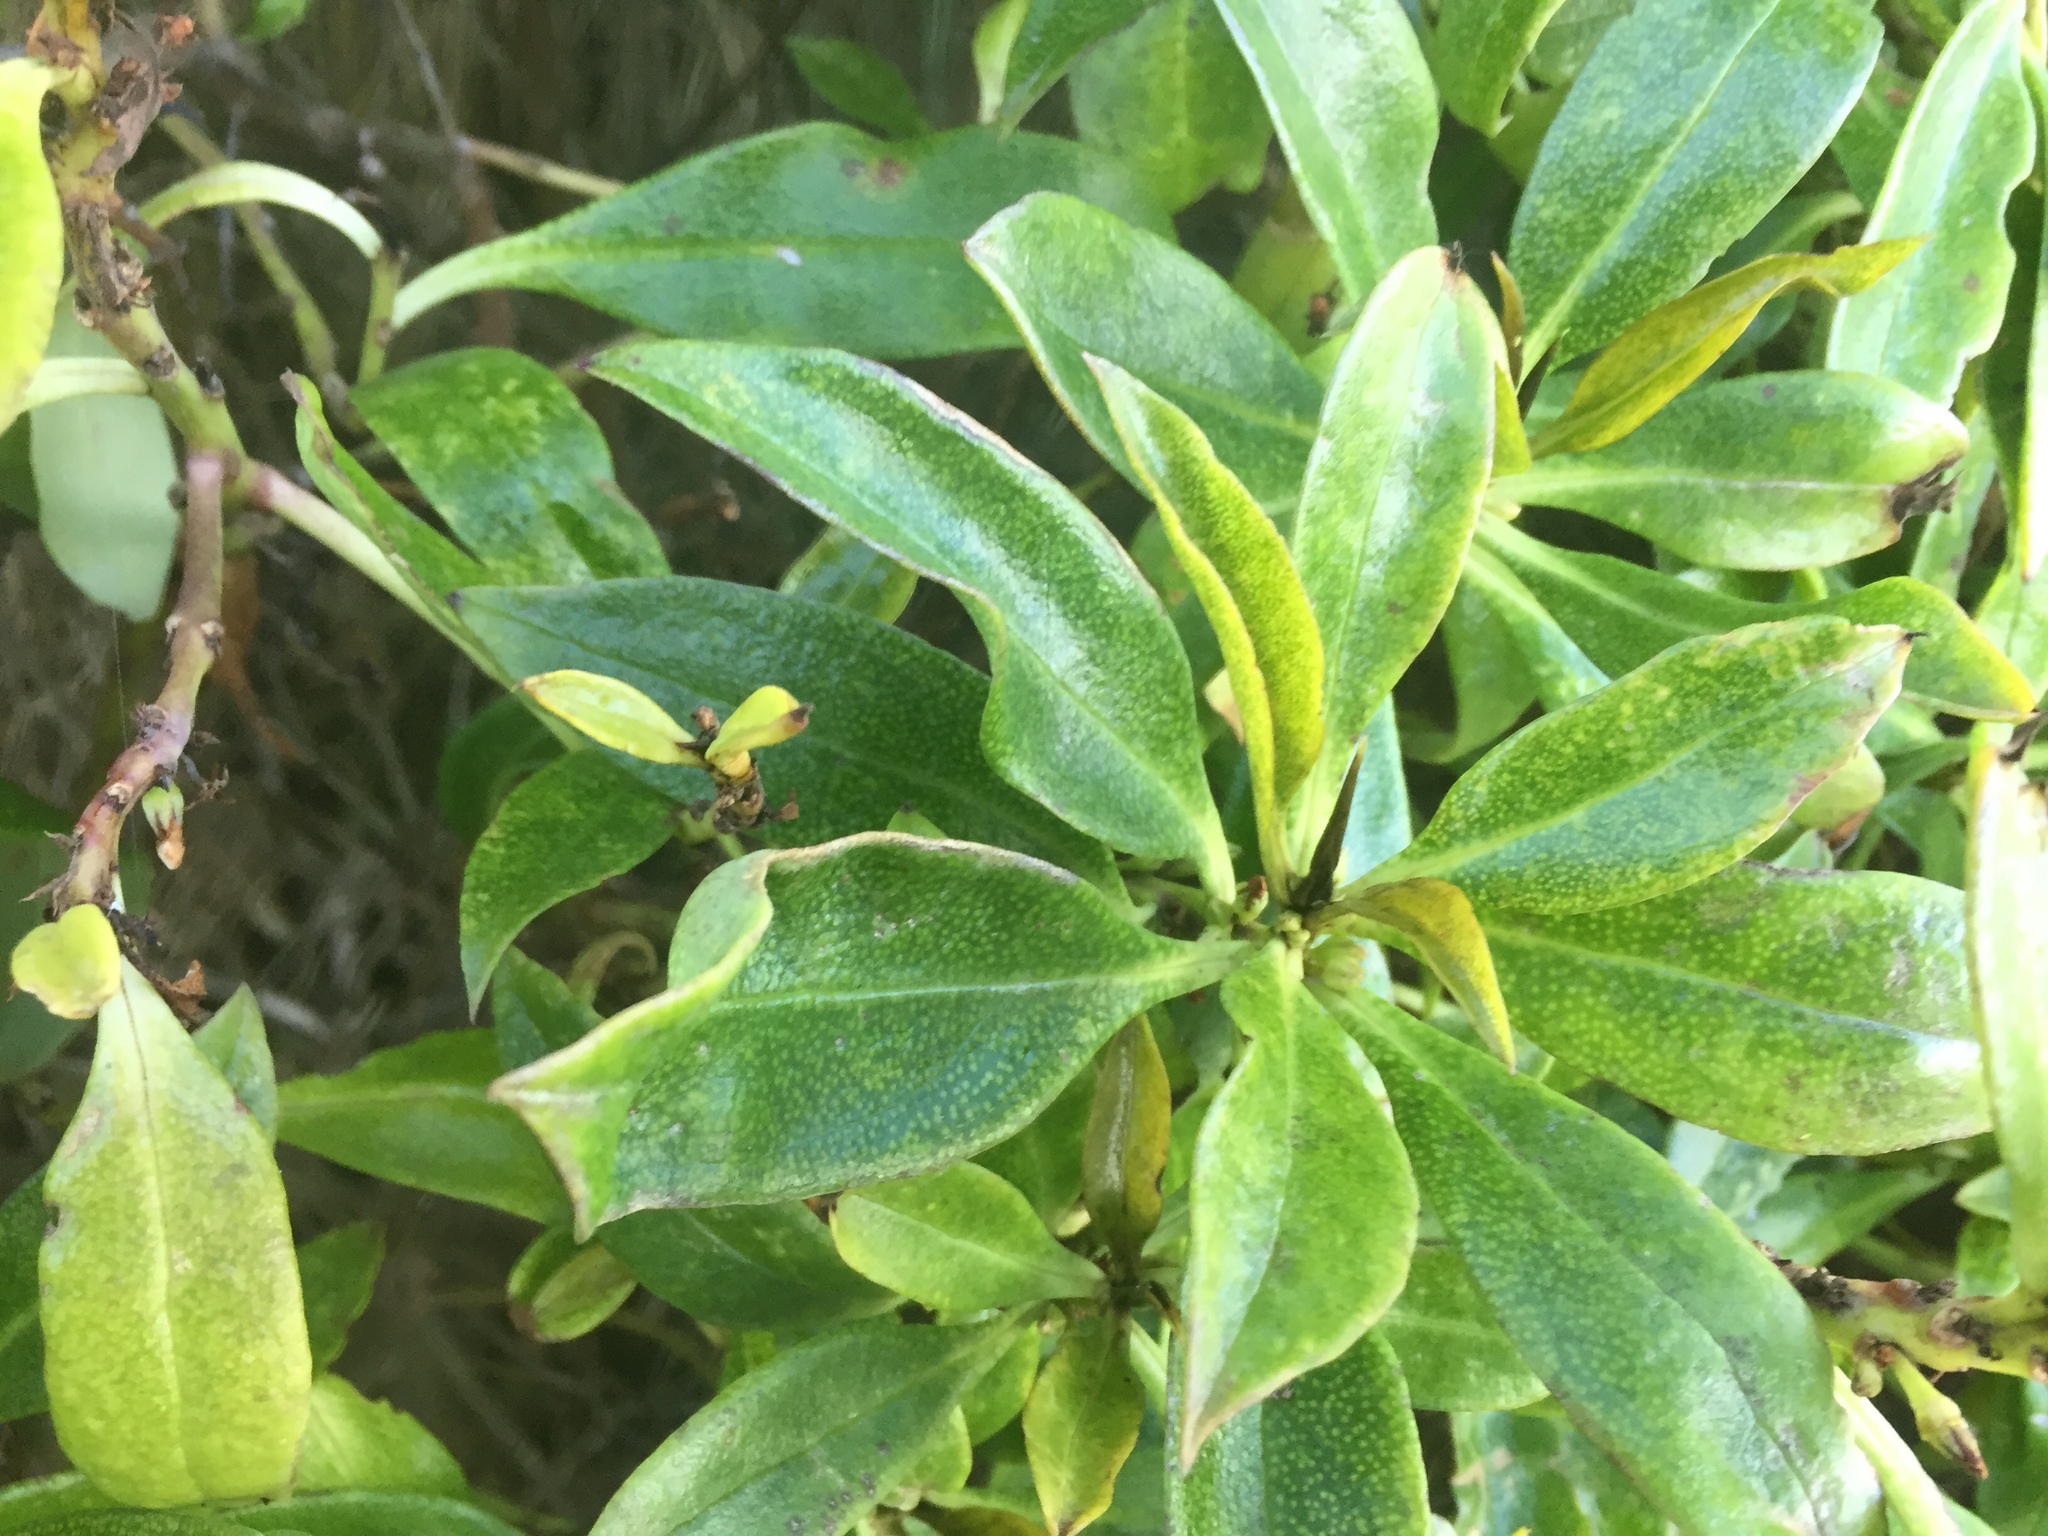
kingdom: Plantae
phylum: Tracheophyta
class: Magnoliopsida
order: Lamiales
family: Scrophulariaceae
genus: Myoporum
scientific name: Myoporum laetum
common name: Ngaio tree
